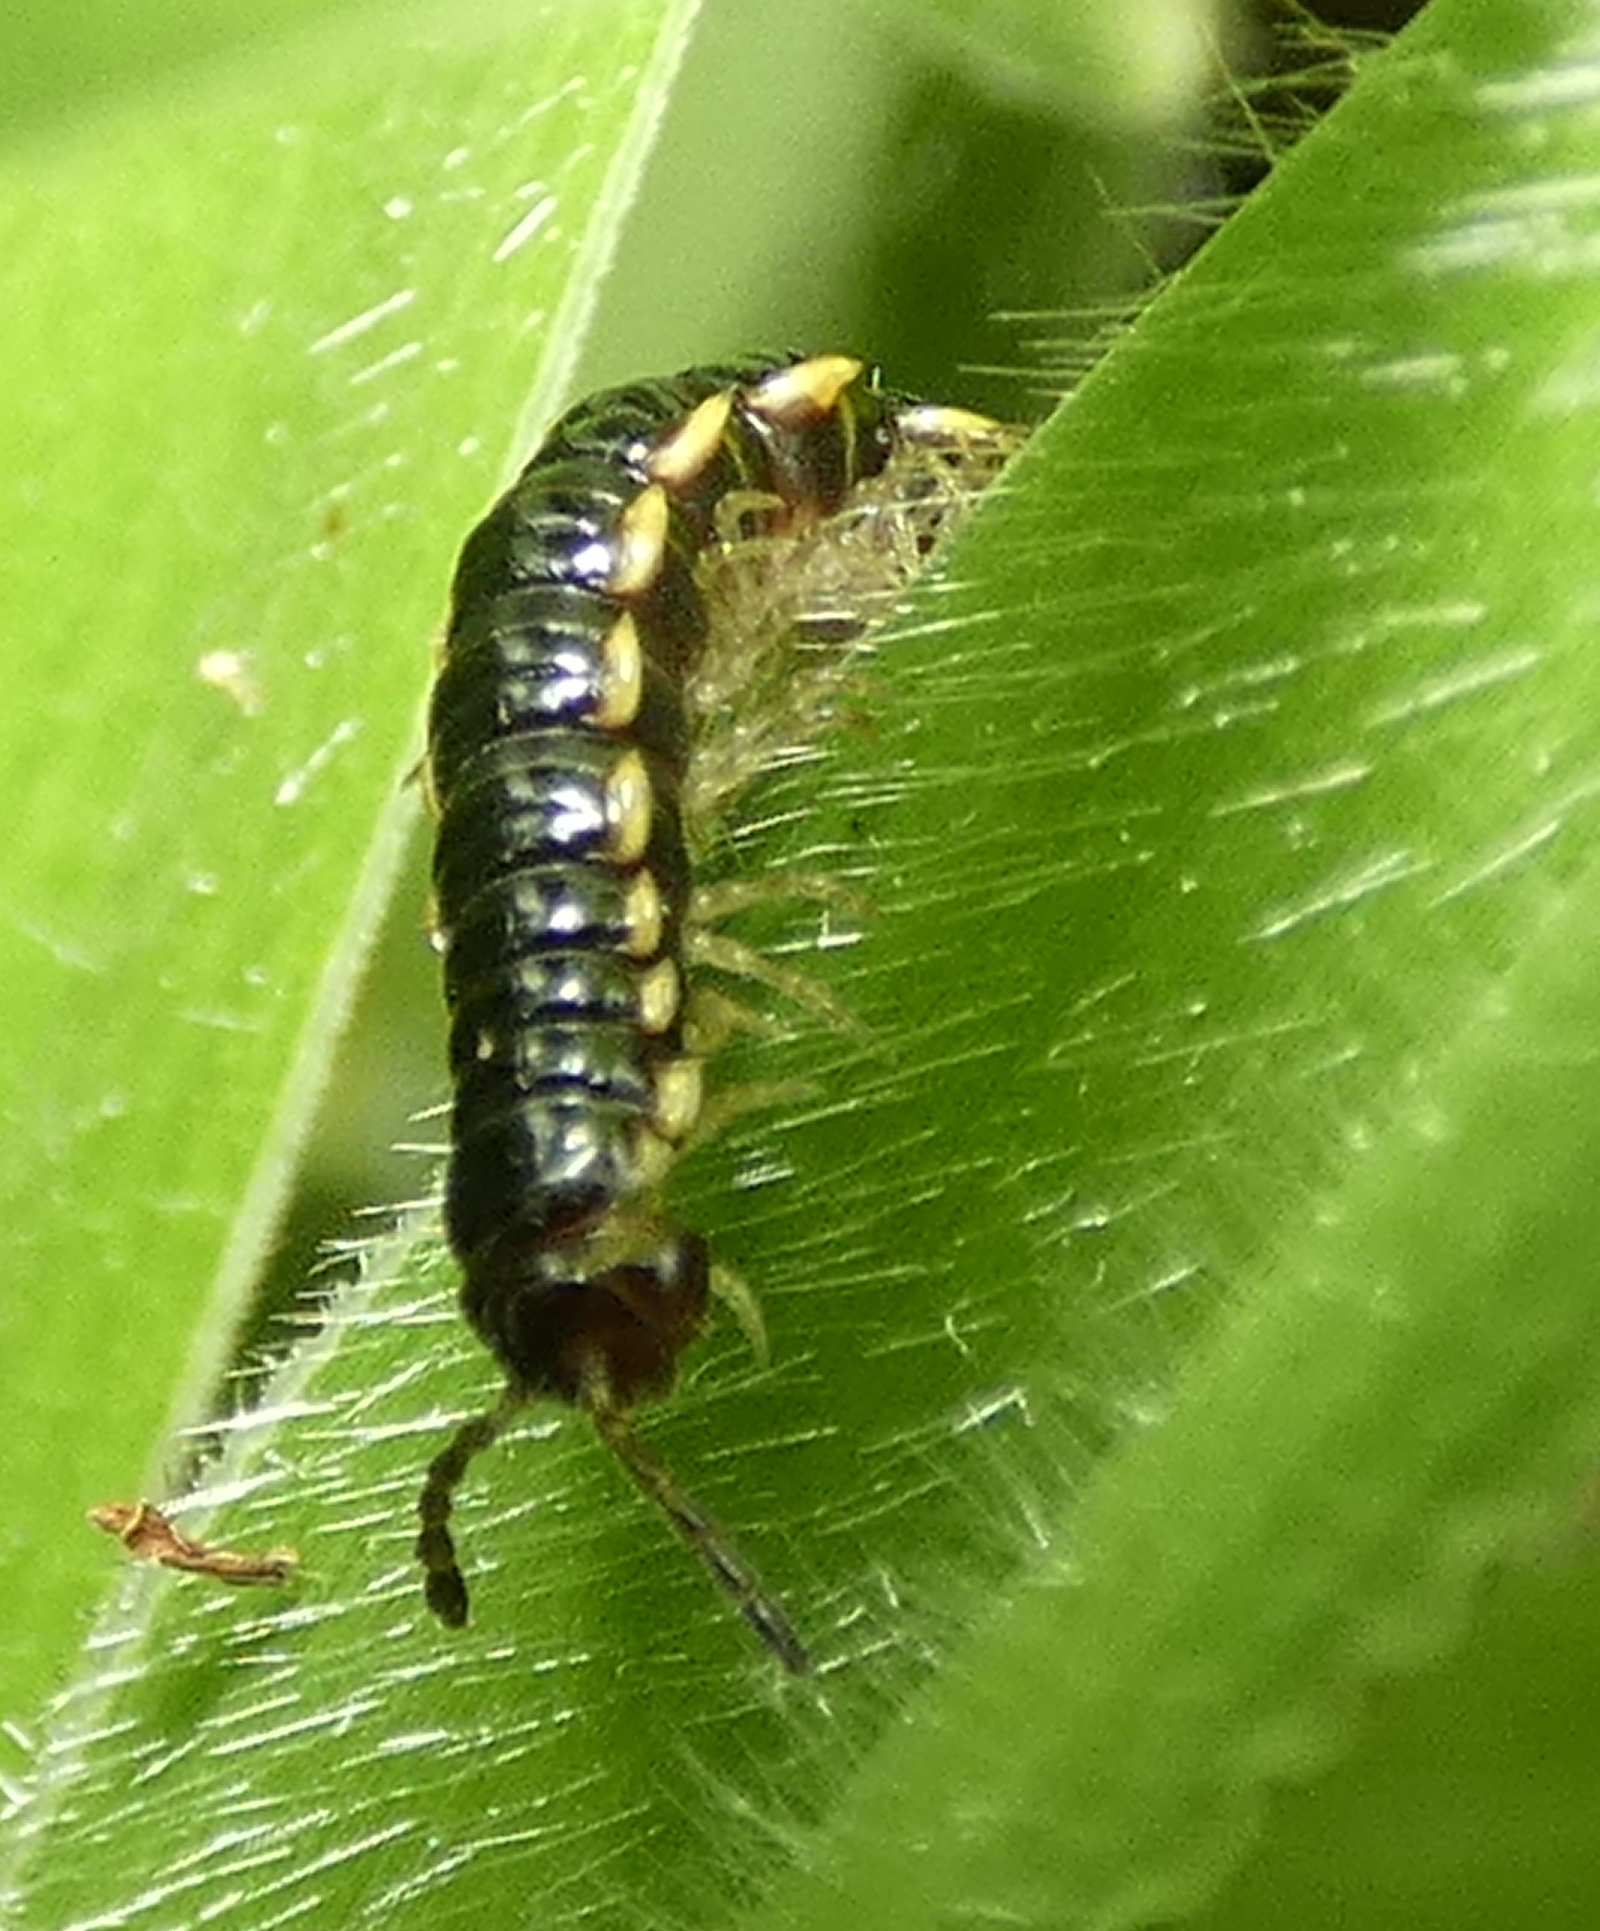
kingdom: Animalia
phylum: Arthropoda
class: Diplopoda
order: Polydesmida
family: Paradoxosomatidae
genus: Orthomorpha
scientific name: Orthomorpha coarctata
